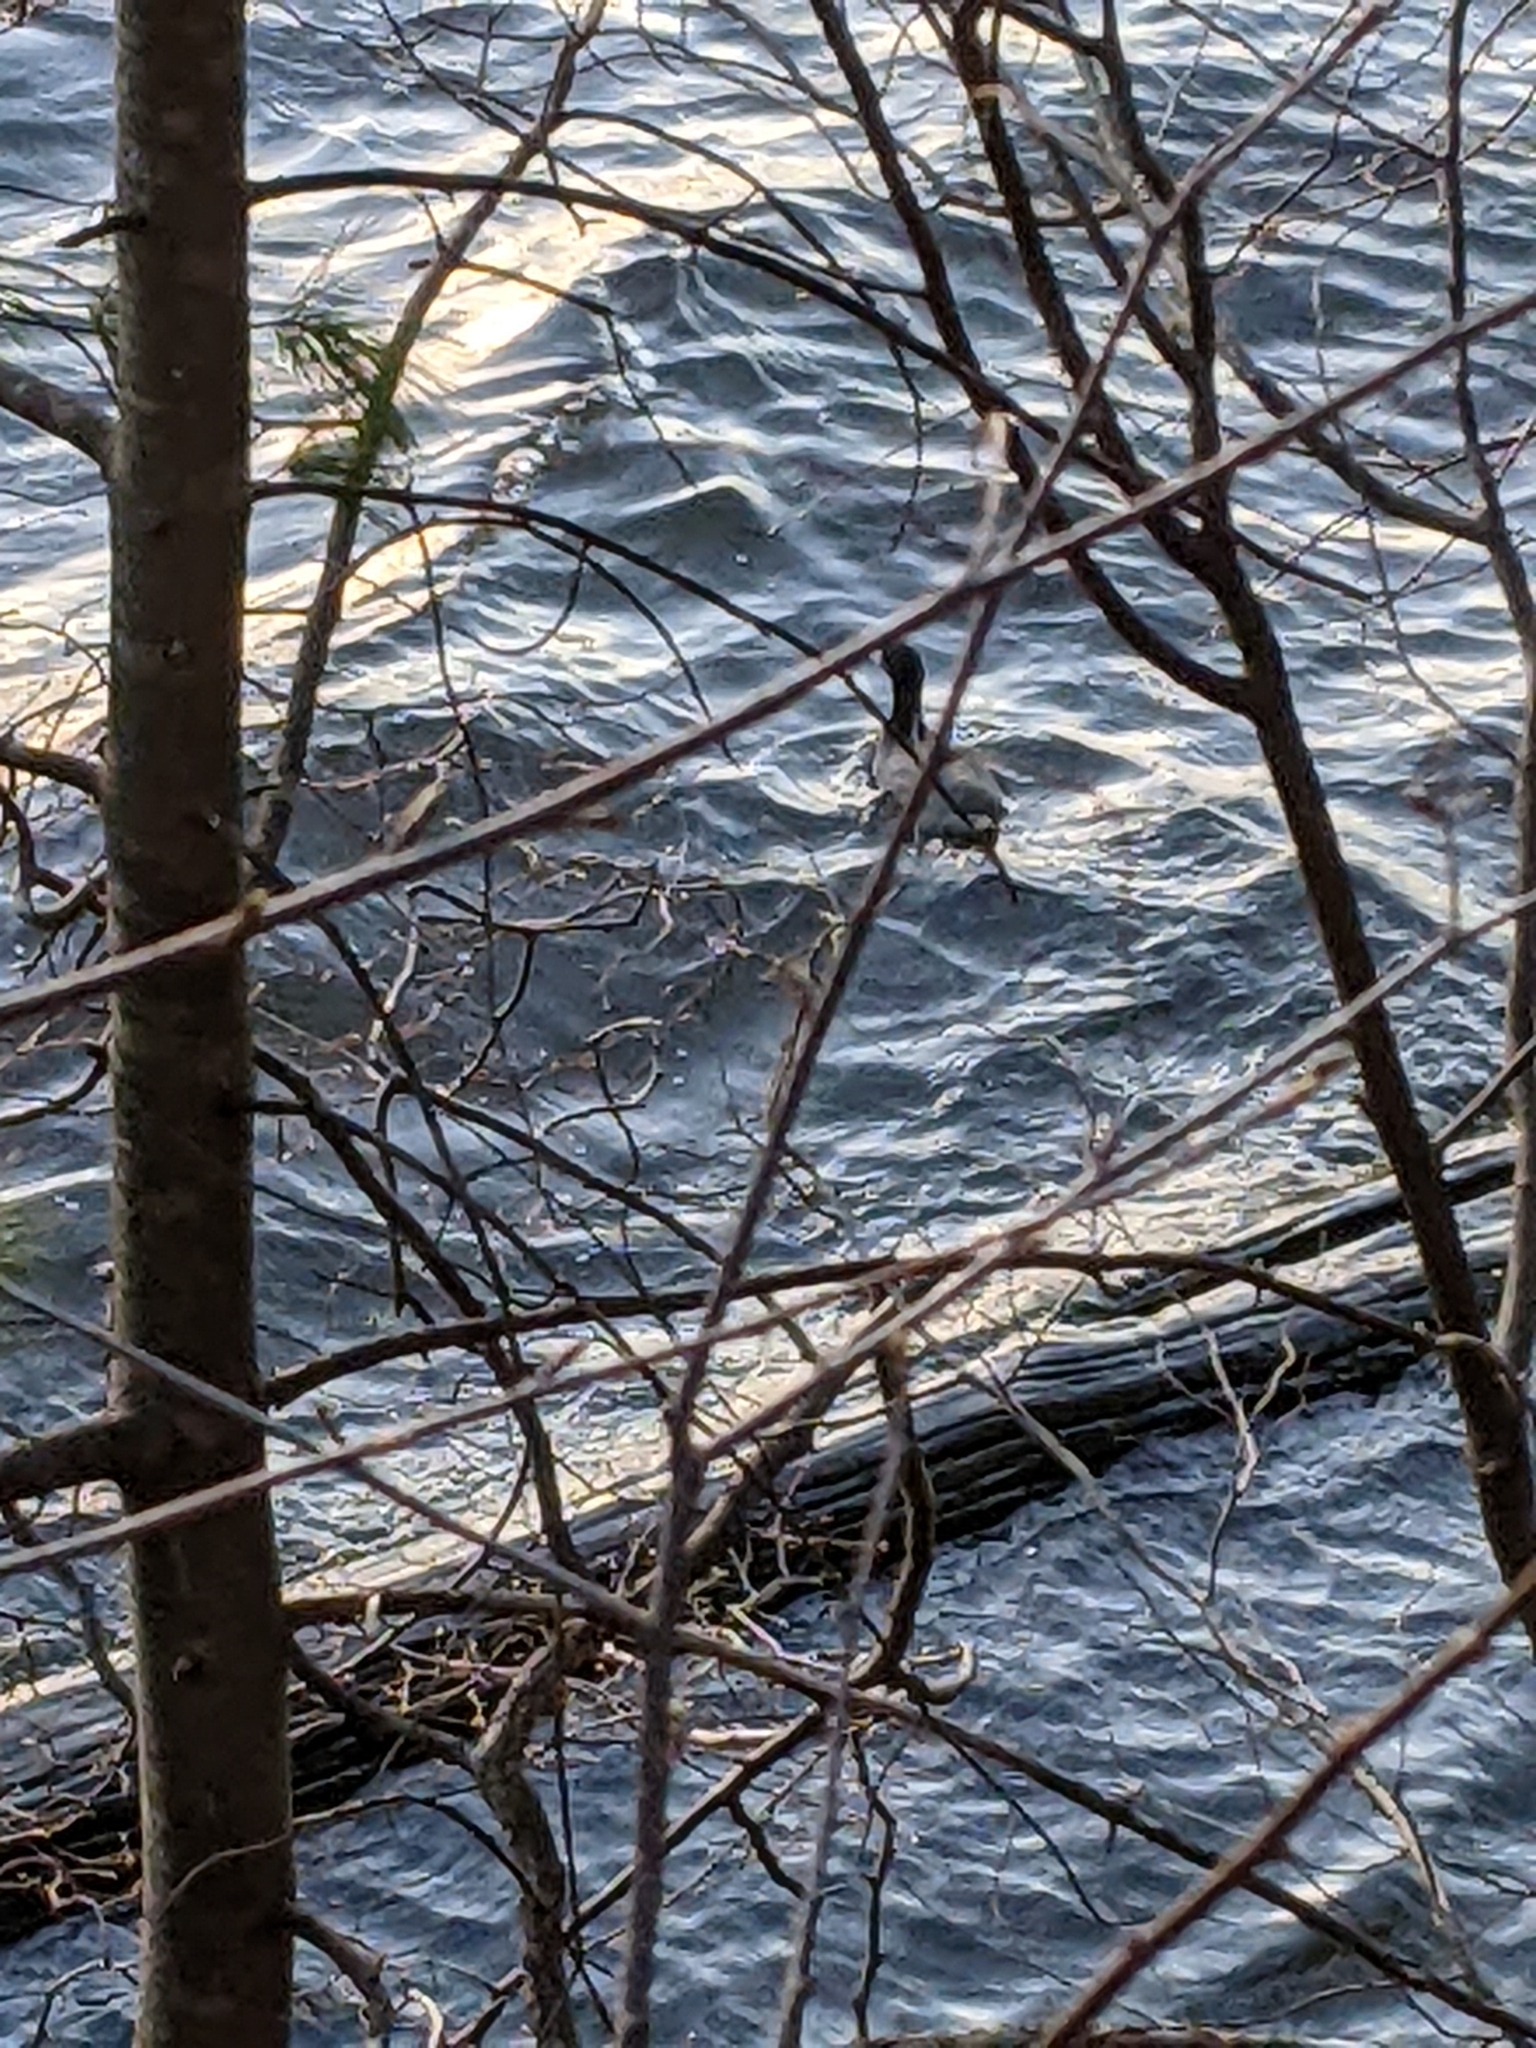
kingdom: Animalia
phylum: Chordata
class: Aves
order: Gruiformes
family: Rallidae
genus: Fulica
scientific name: Fulica americana
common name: American coot
